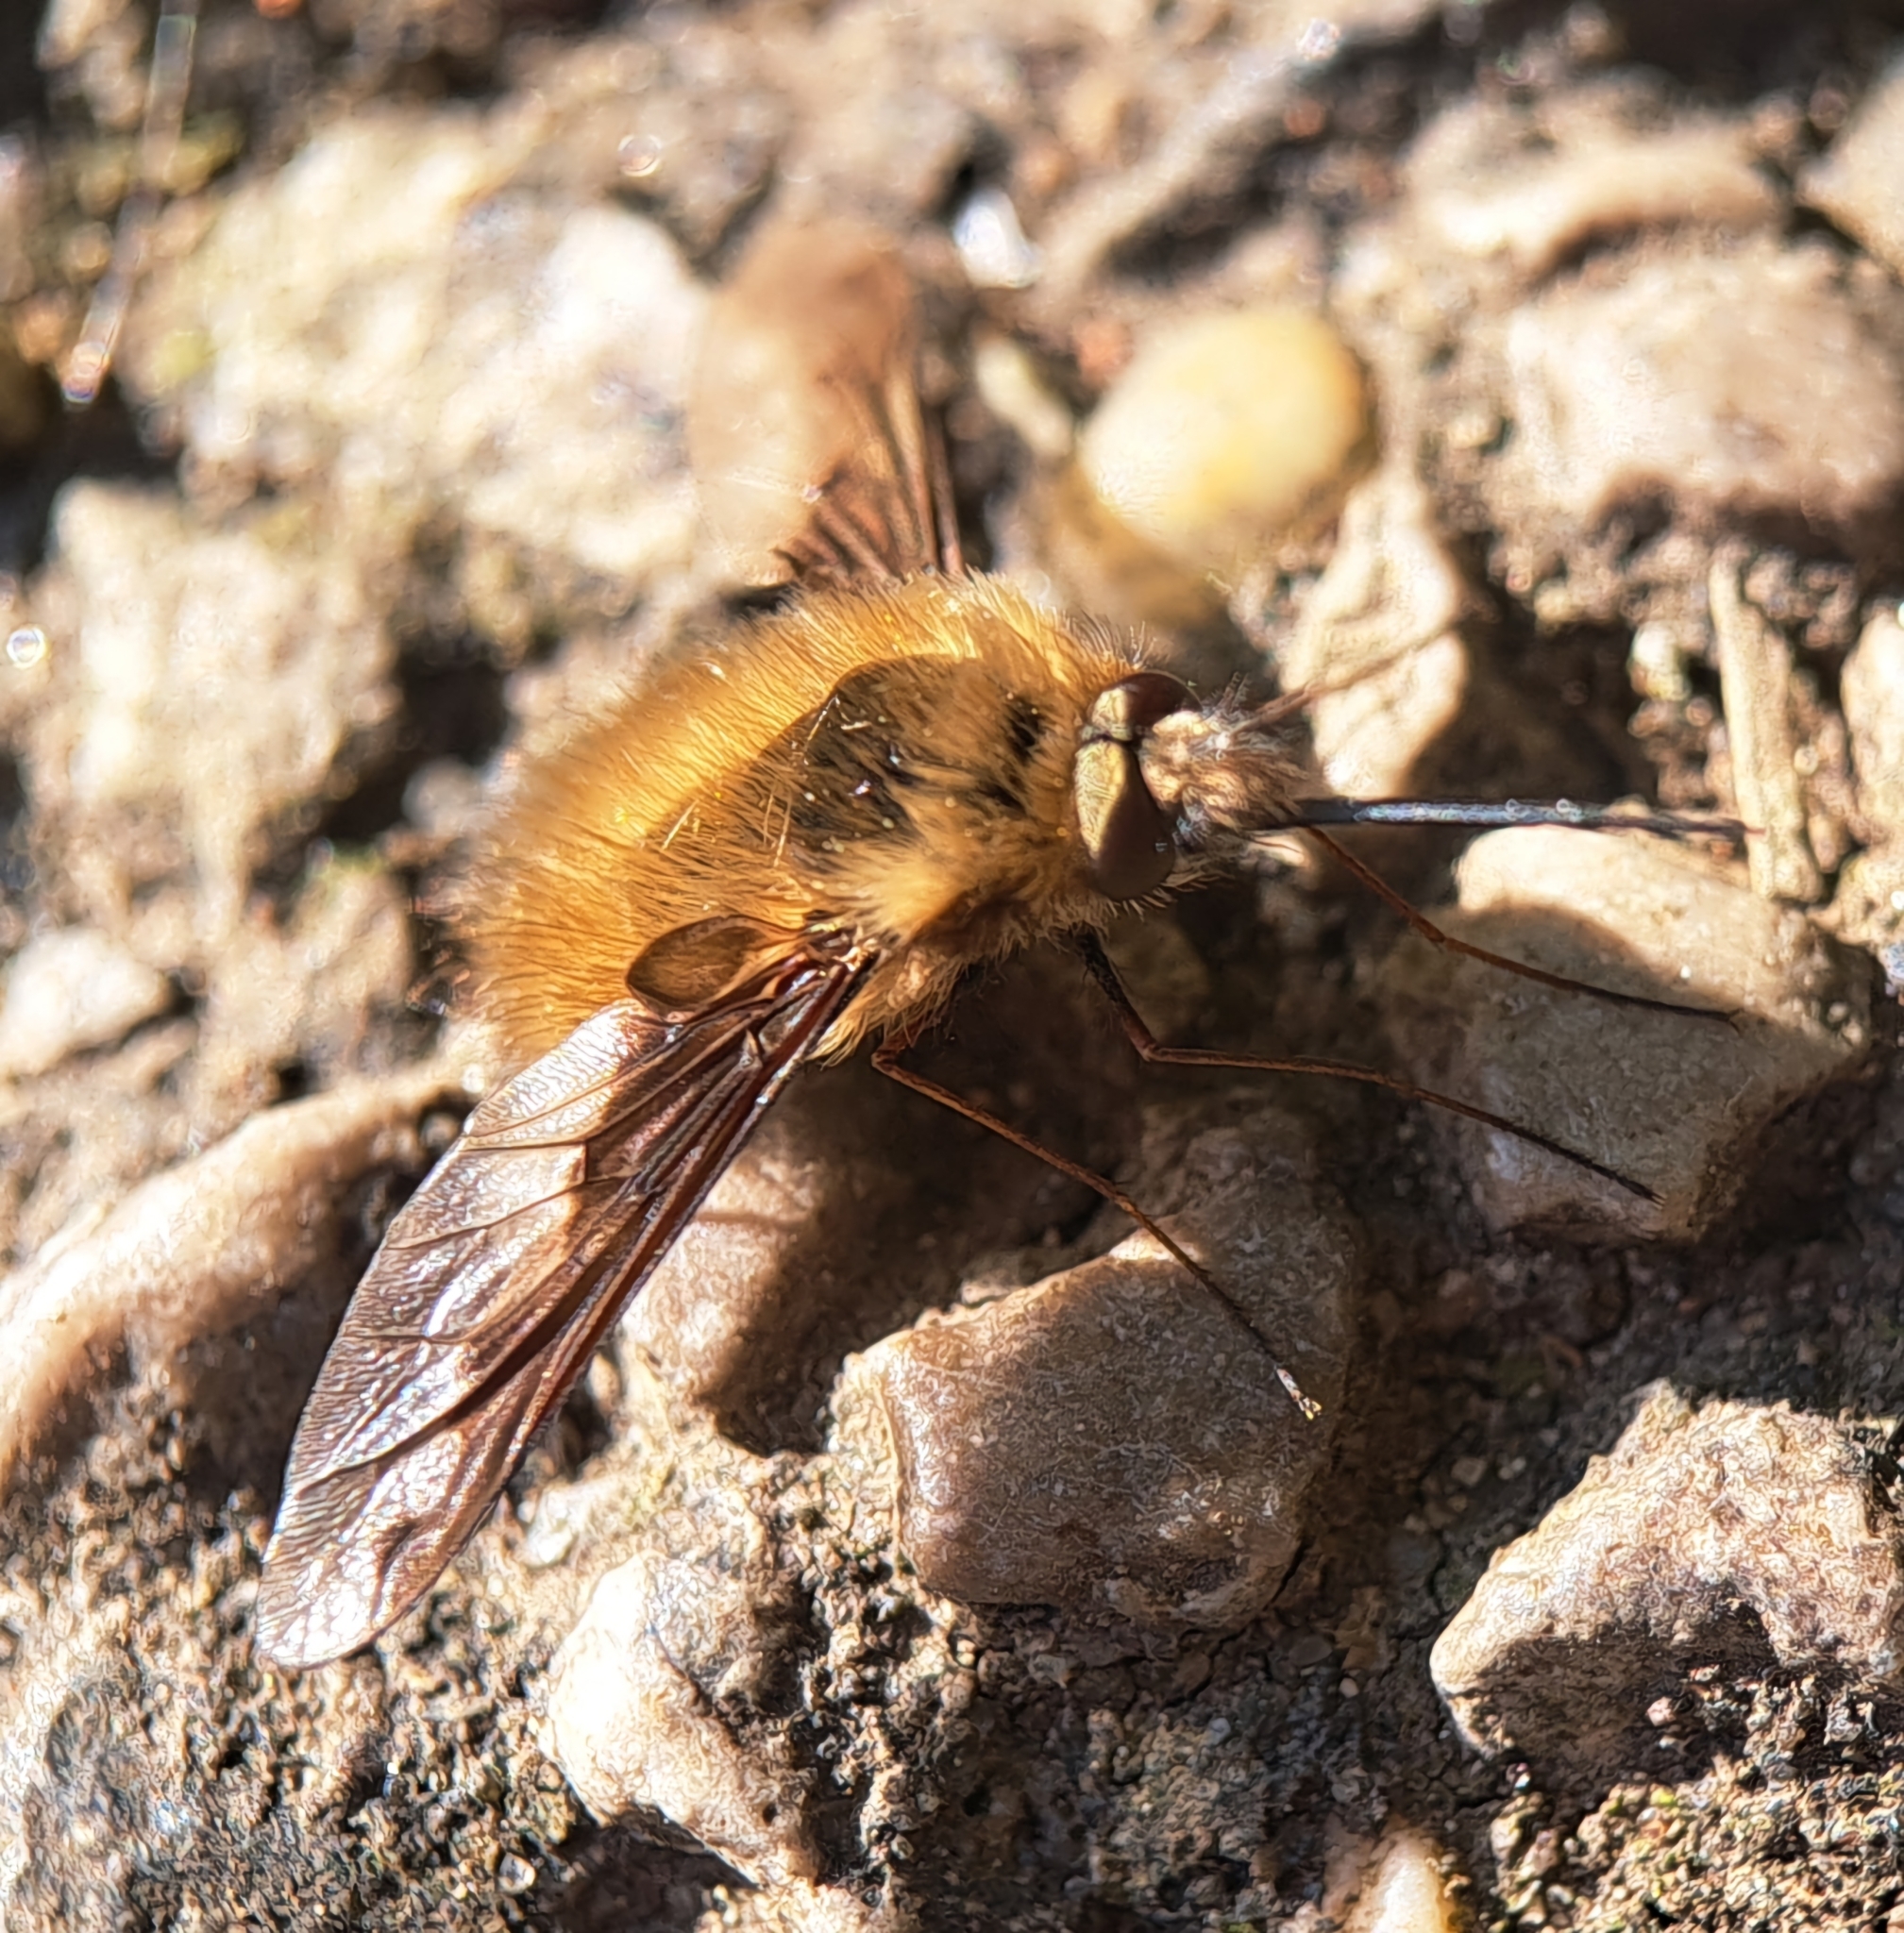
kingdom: Animalia
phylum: Arthropoda
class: Insecta
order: Diptera
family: Bombyliidae
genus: Bombylius
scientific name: Bombylius major
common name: Bee fly
